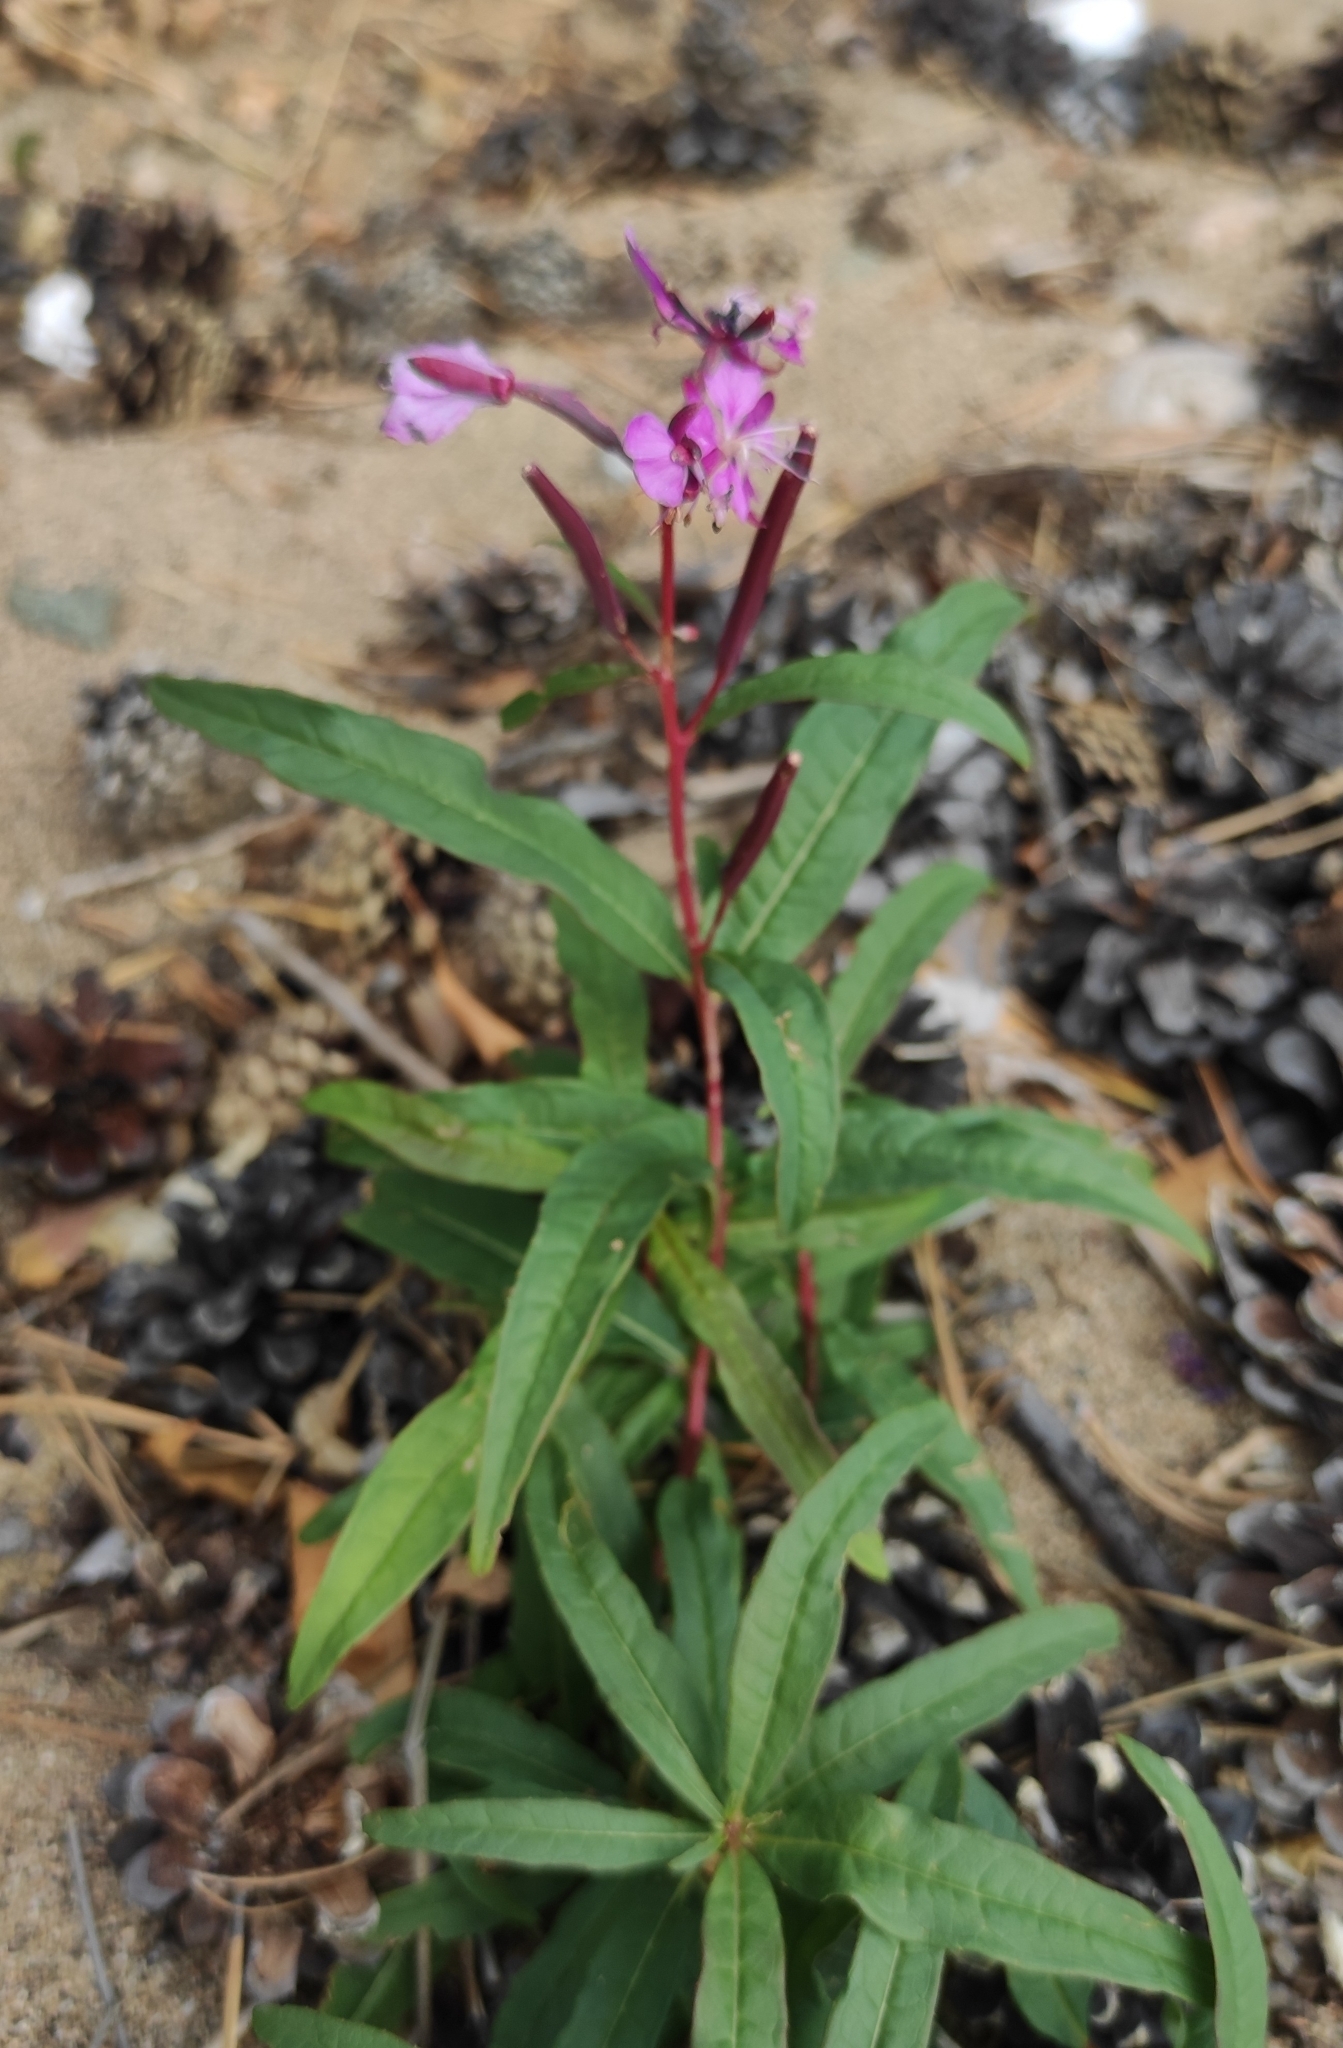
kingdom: Plantae
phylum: Tracheophyta
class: Magnoliopsida
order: Myrtales
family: Onagraceae
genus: Chamaenerion
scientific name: Chamaenerion angustifolium
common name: Fireweed
